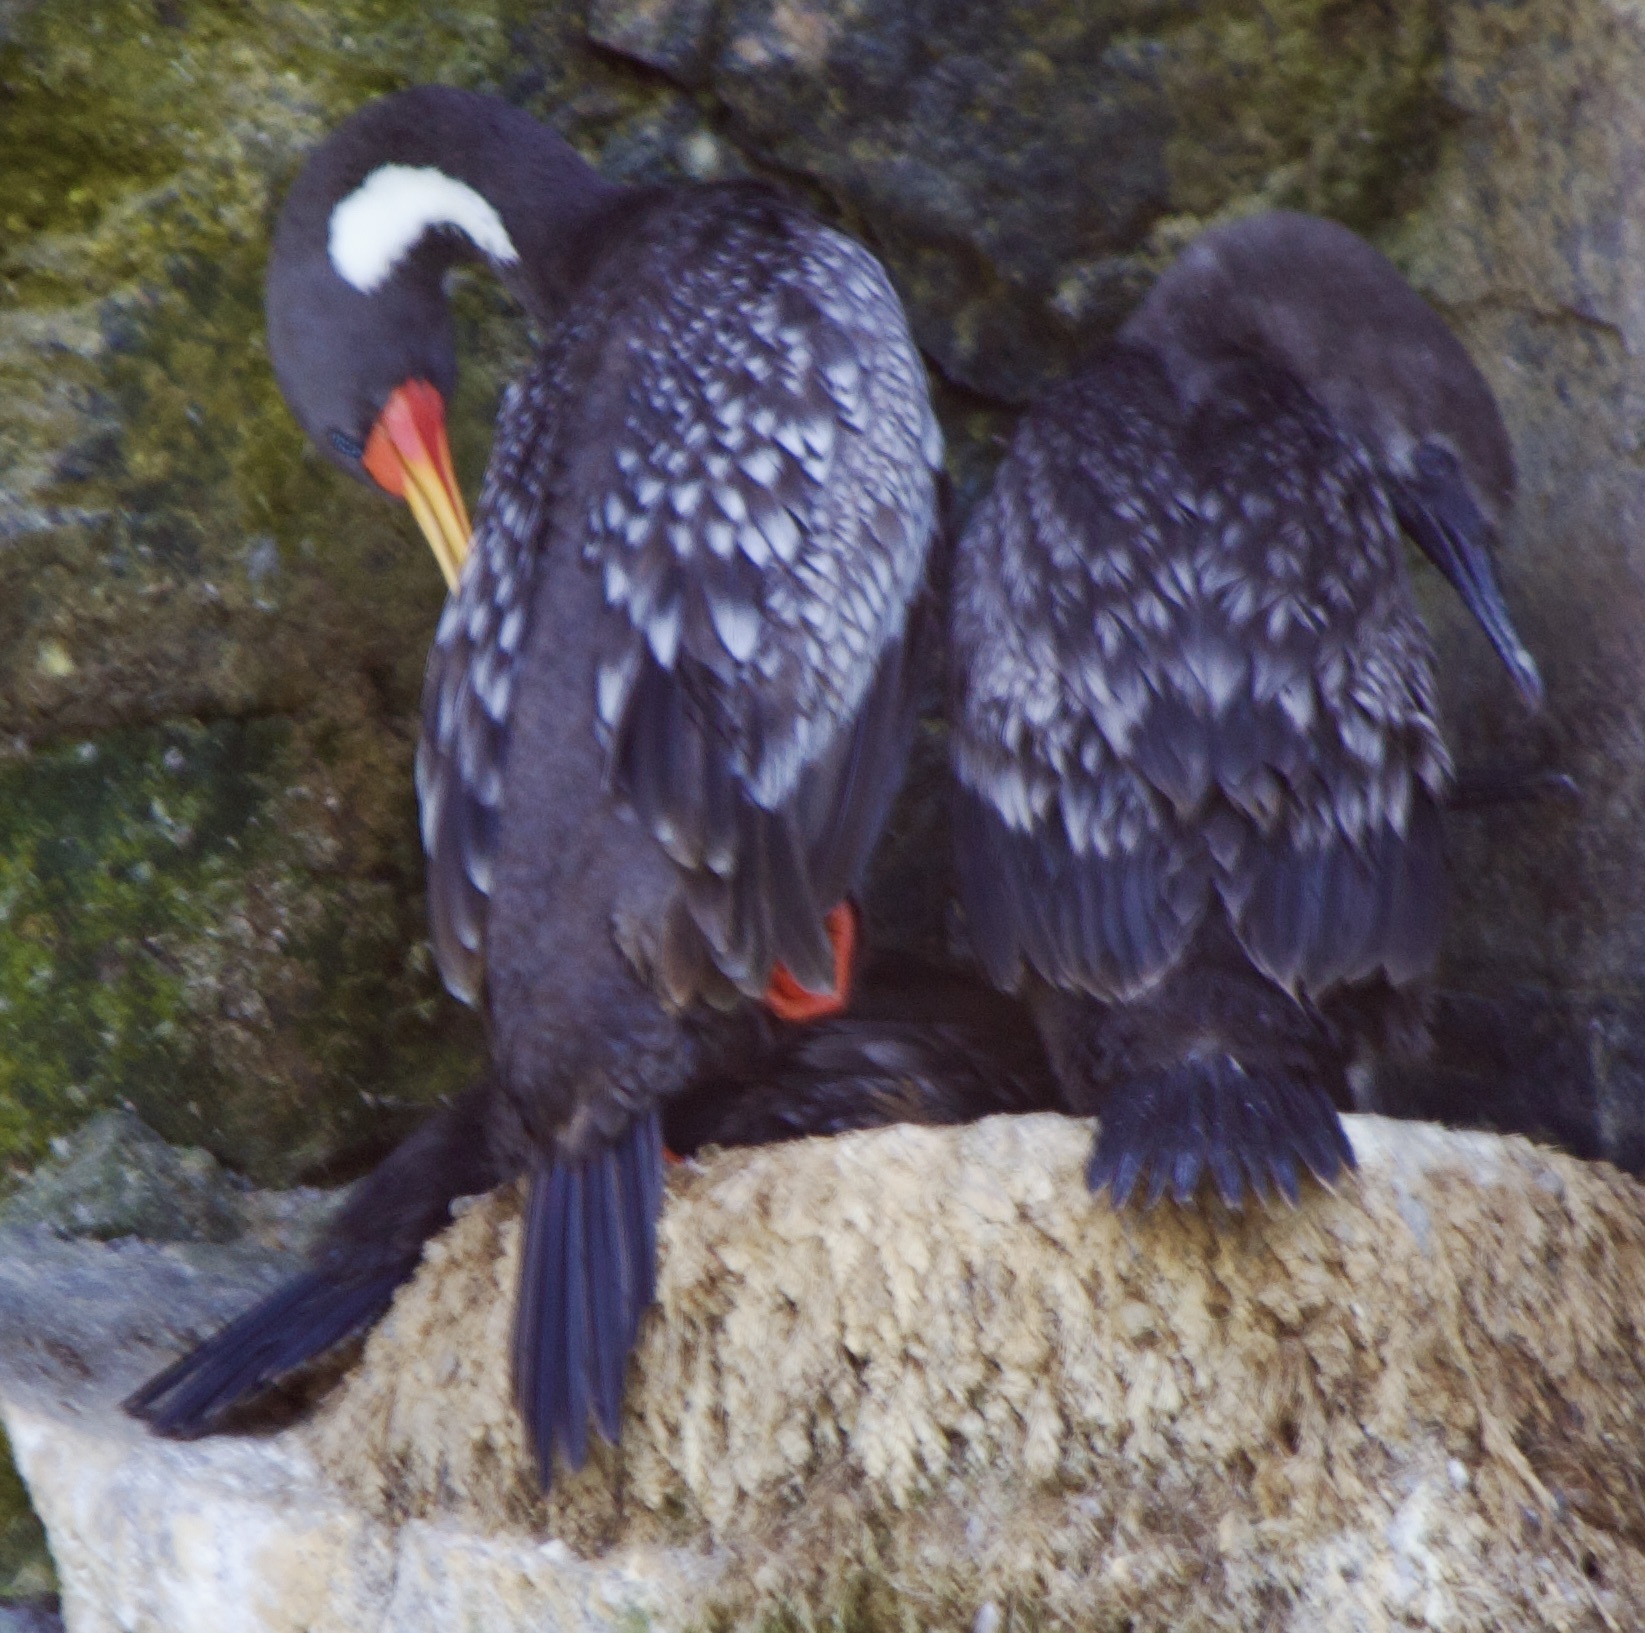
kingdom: Animalia
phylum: Chordata
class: Aves
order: Suliformes
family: Phalacrocoracidae
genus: Phalacrocorax
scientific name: Phalacrocorax gaimardi
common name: Red-legged cormorant
